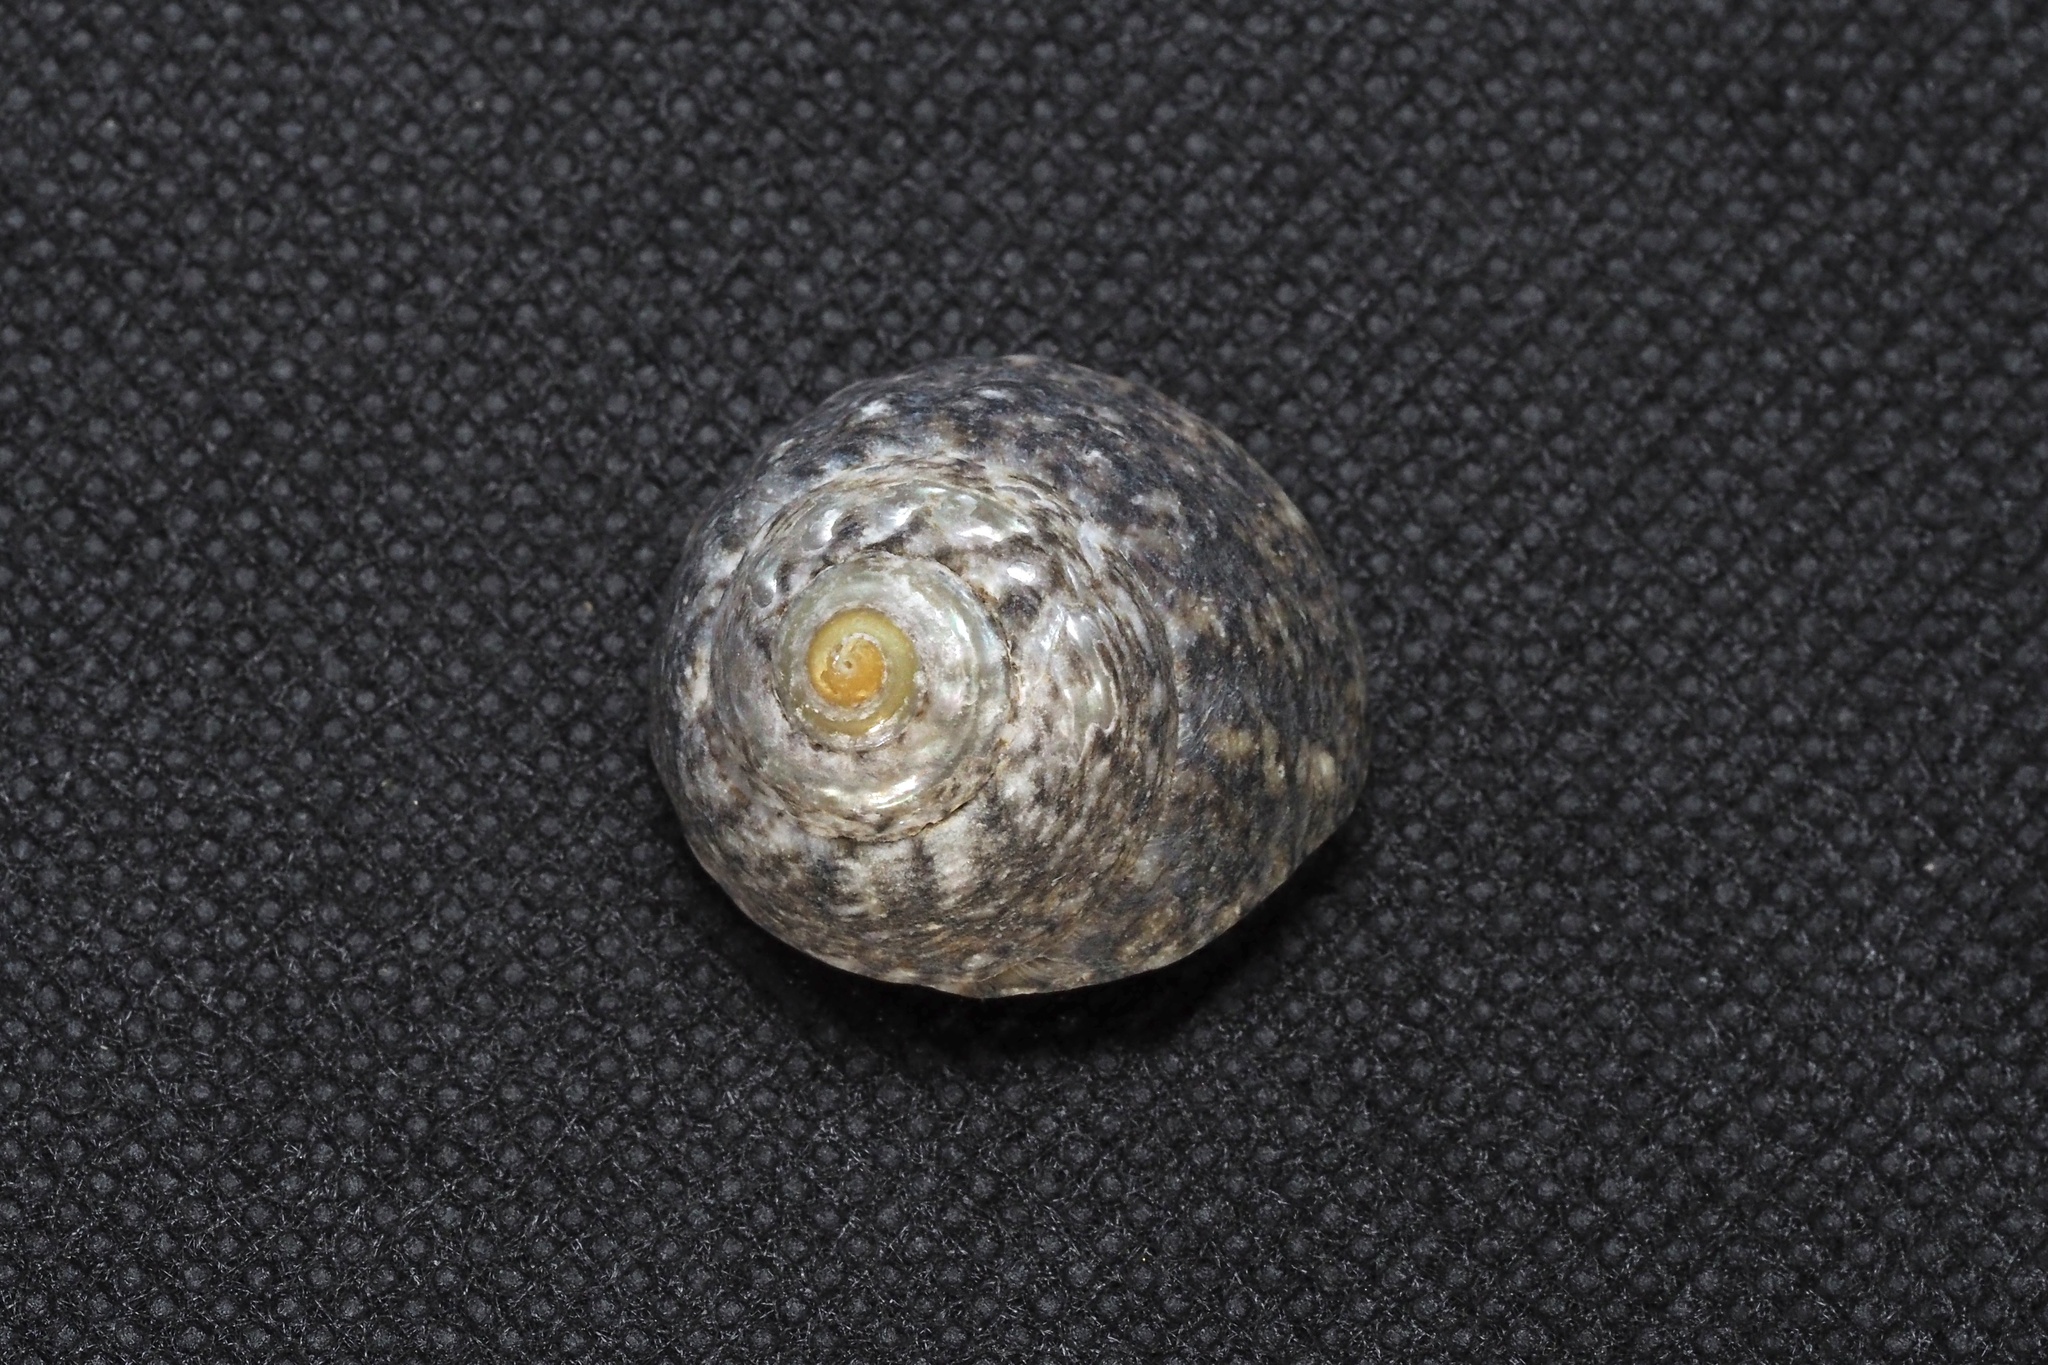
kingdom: Animalia
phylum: Mollusca
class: Gastropoda
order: Trochida
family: Tegulidae
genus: Tegula
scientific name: Tegula turbinata
